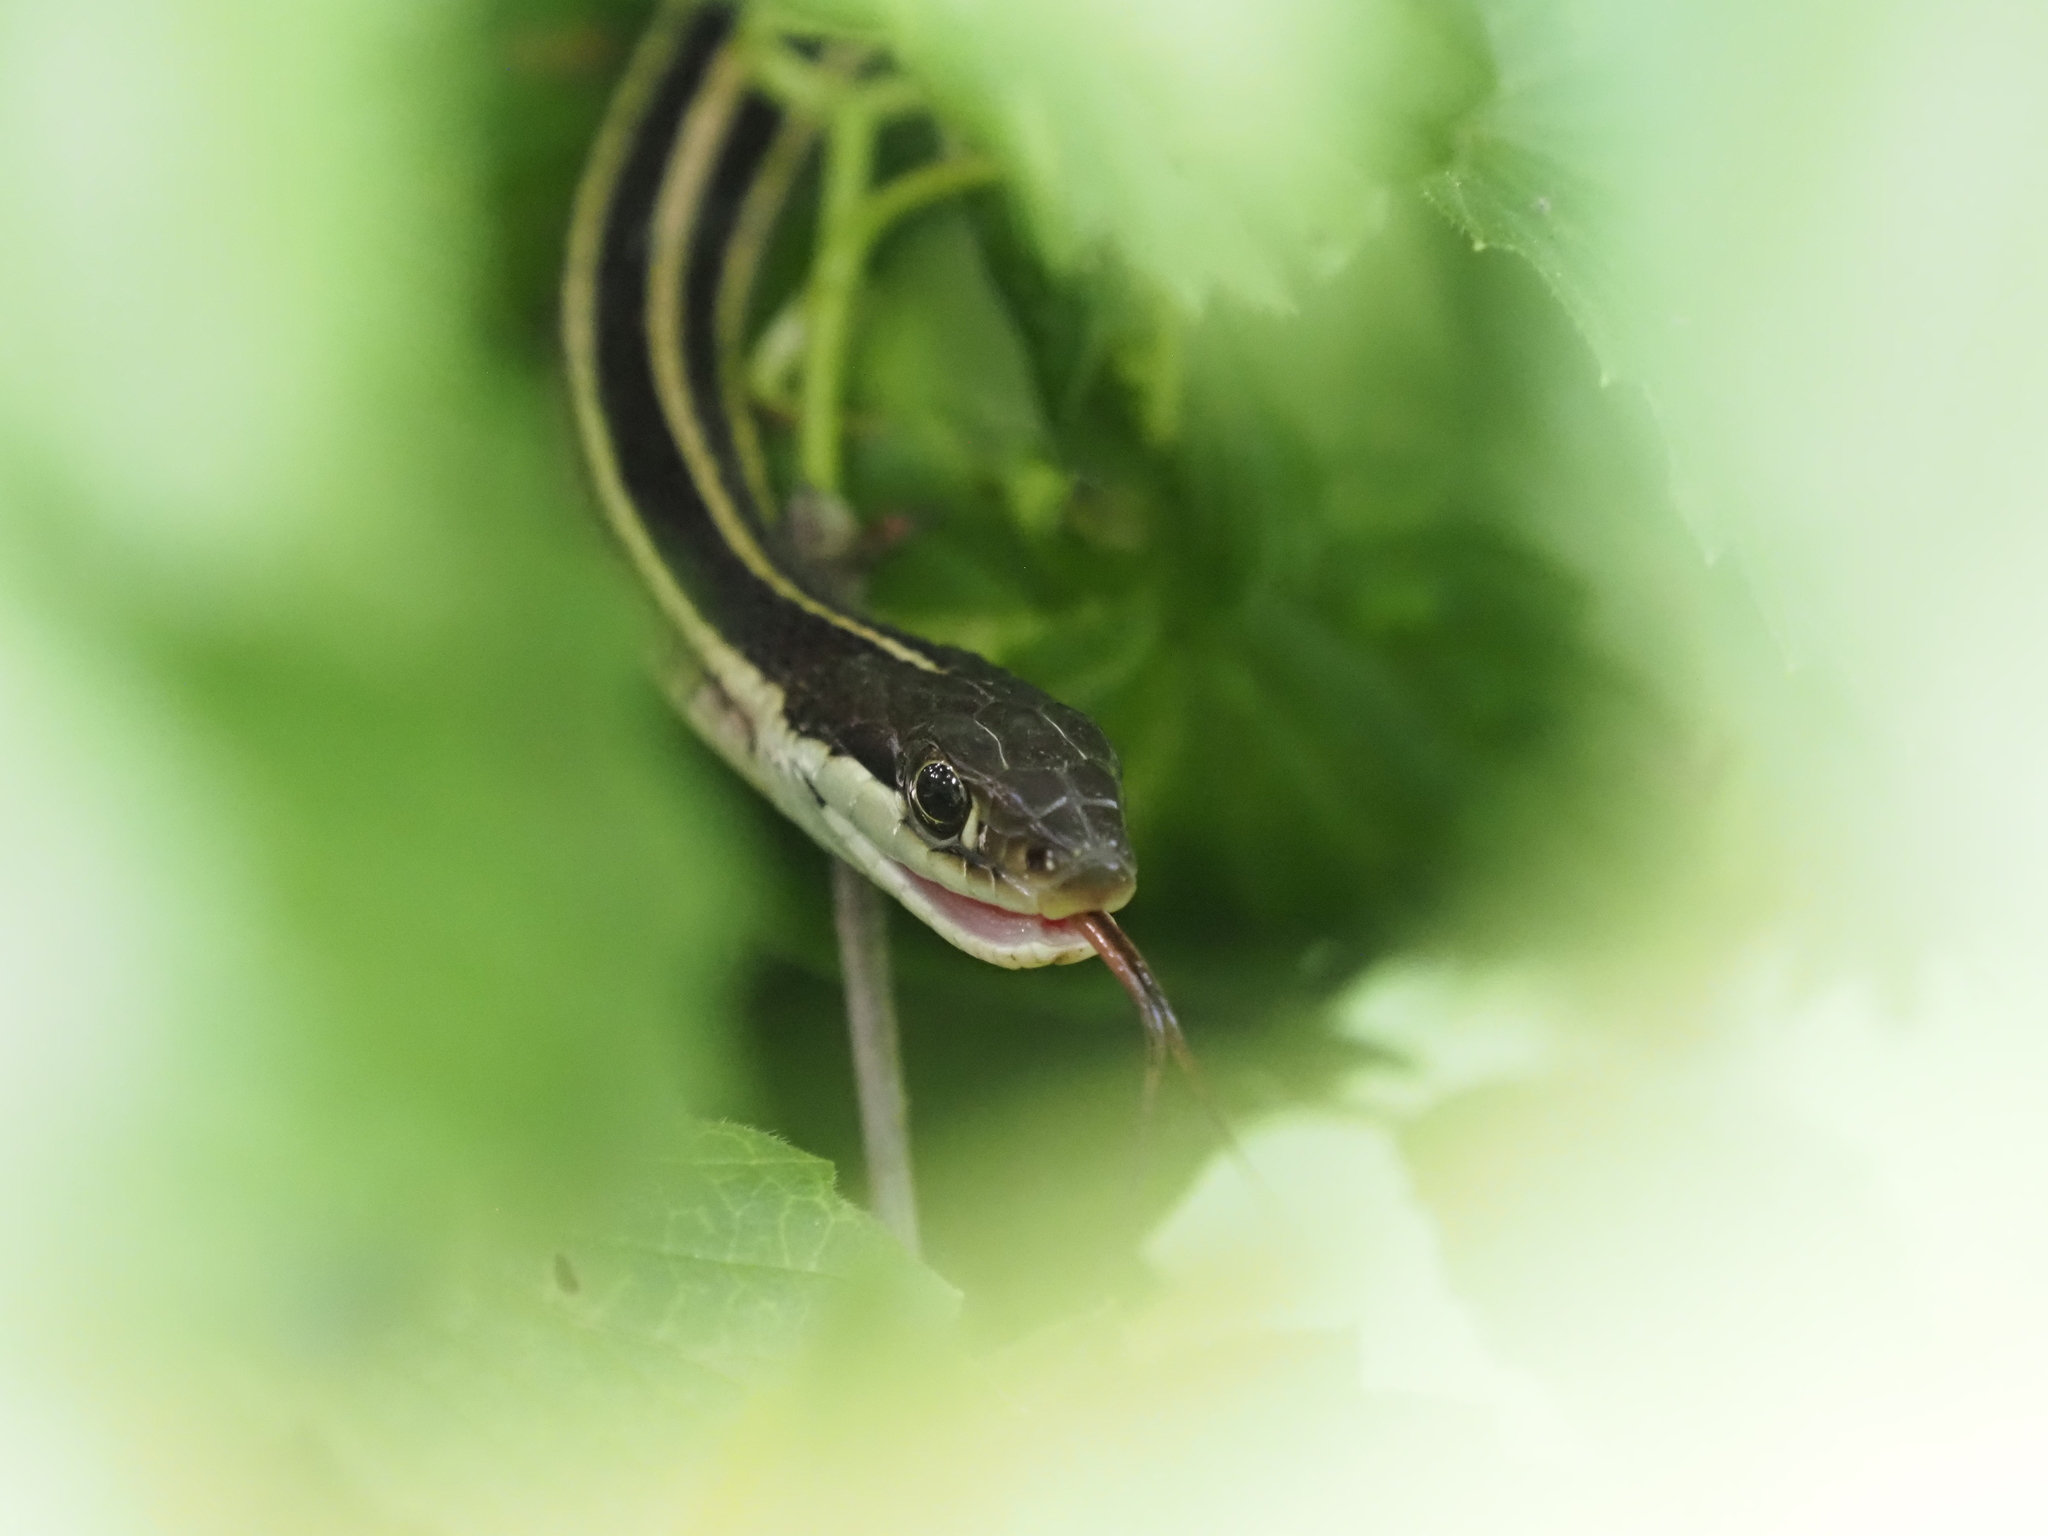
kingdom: Animalia
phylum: Chordata
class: Squamata
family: Colubridae
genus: Thamnophis
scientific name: Thamnophis saurita
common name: Eastern ribbonsnake
